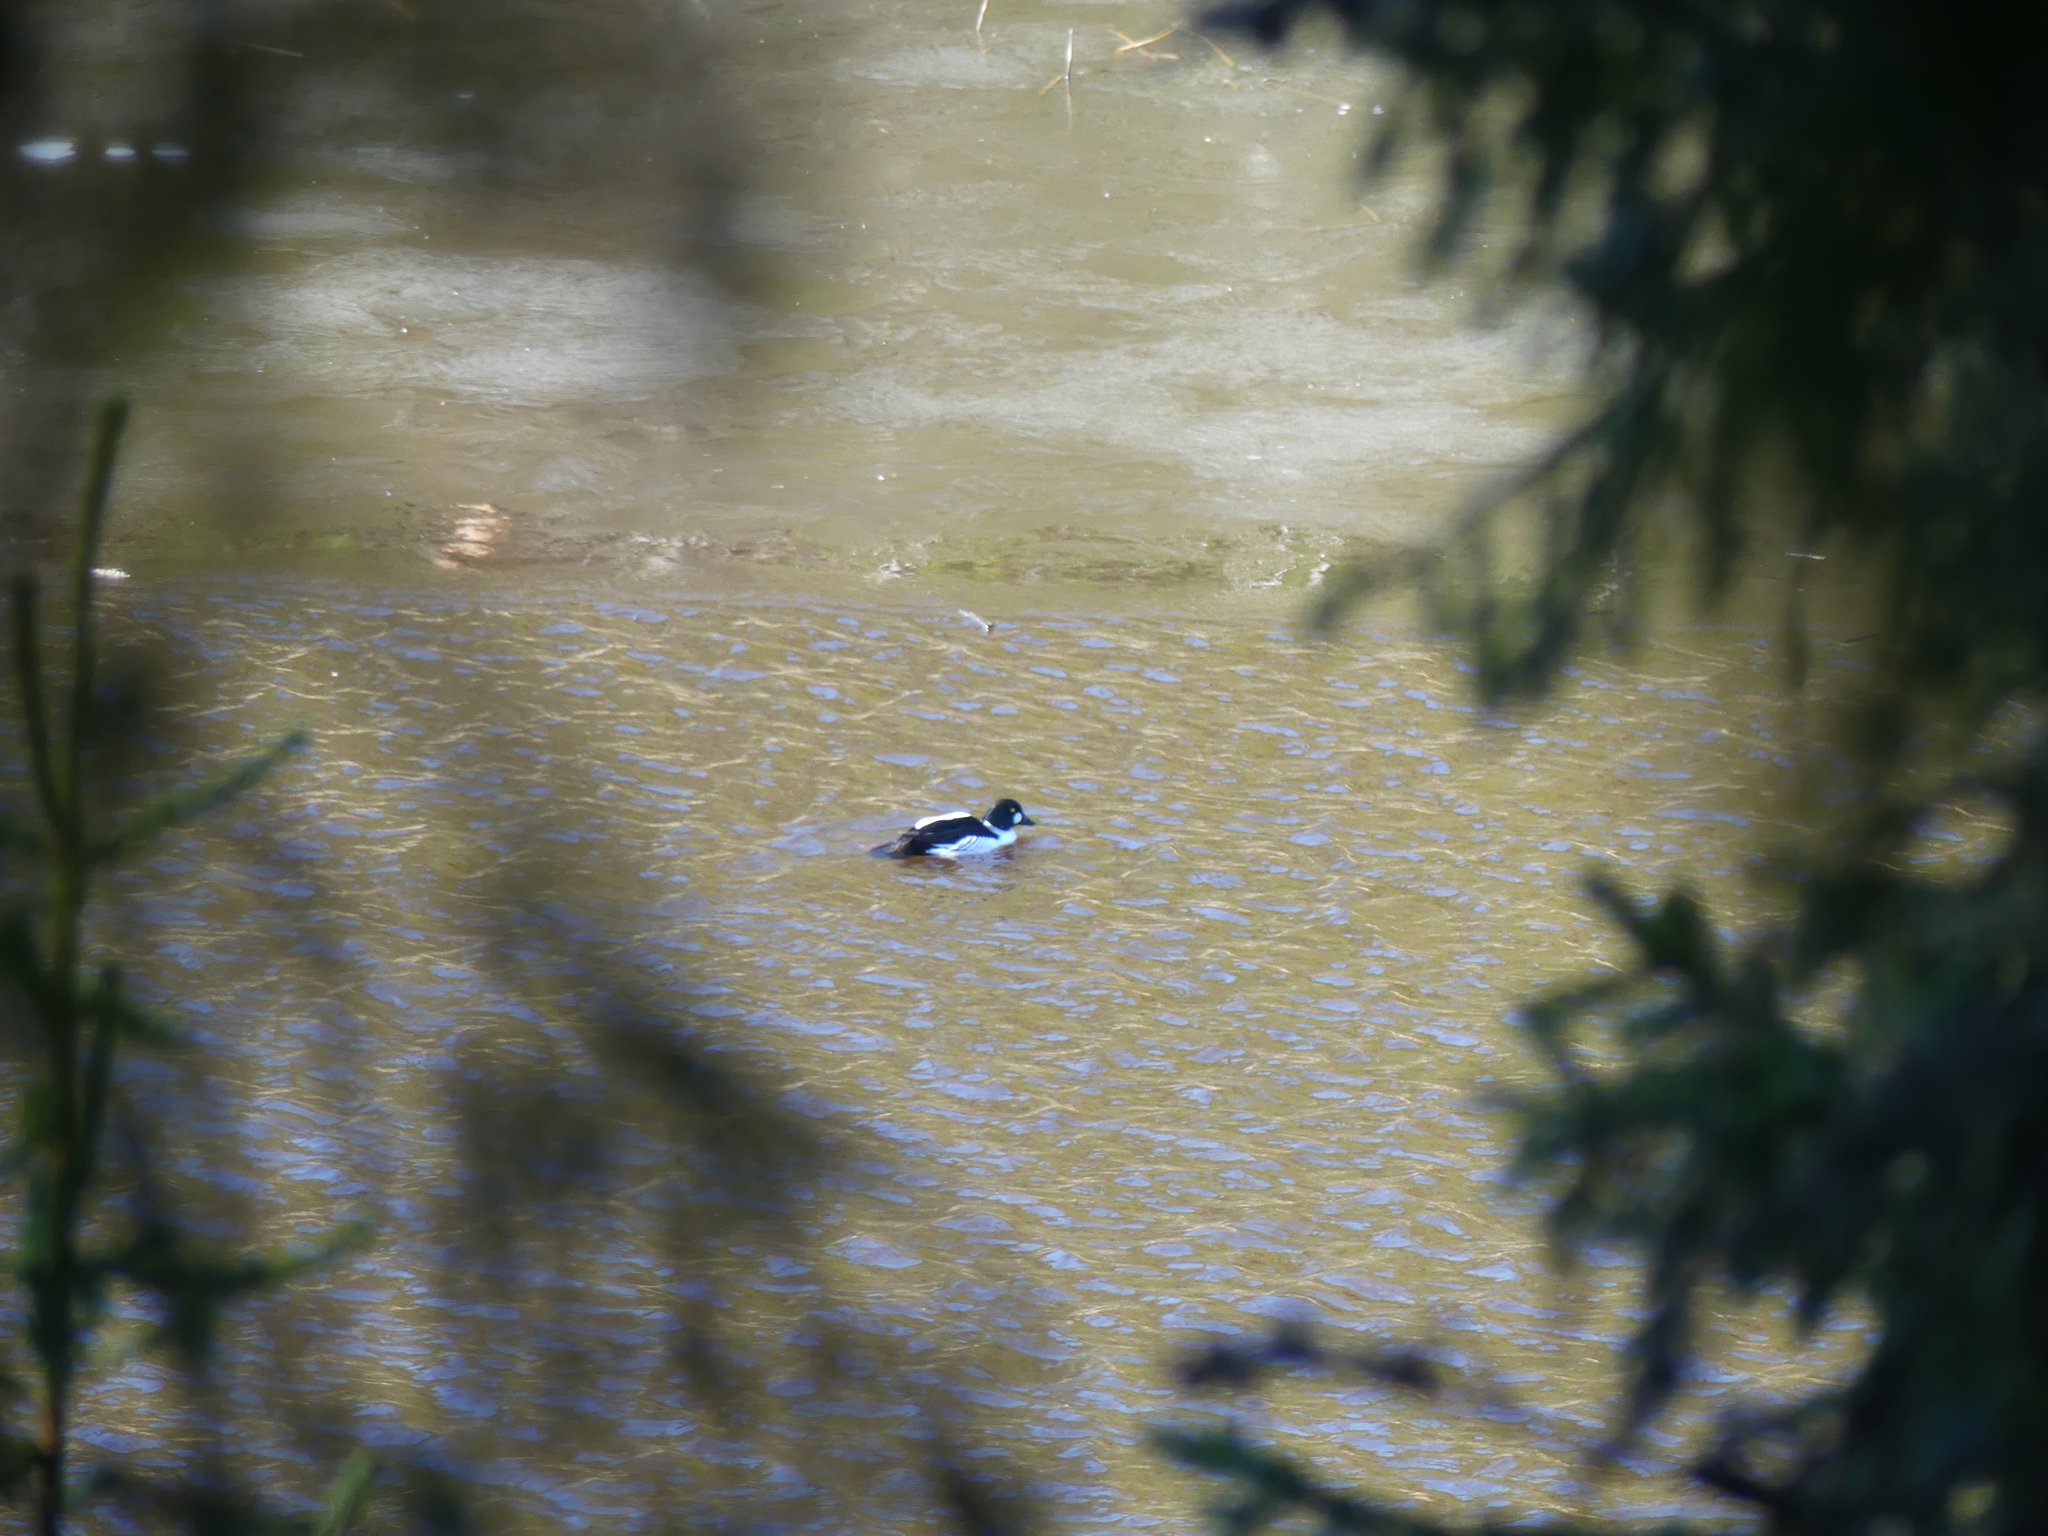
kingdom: Animalia
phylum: Chordata
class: Aves
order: Anseriformes
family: Anatidae
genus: Bucephala
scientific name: Bucephala clangula
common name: Common goldeneye
